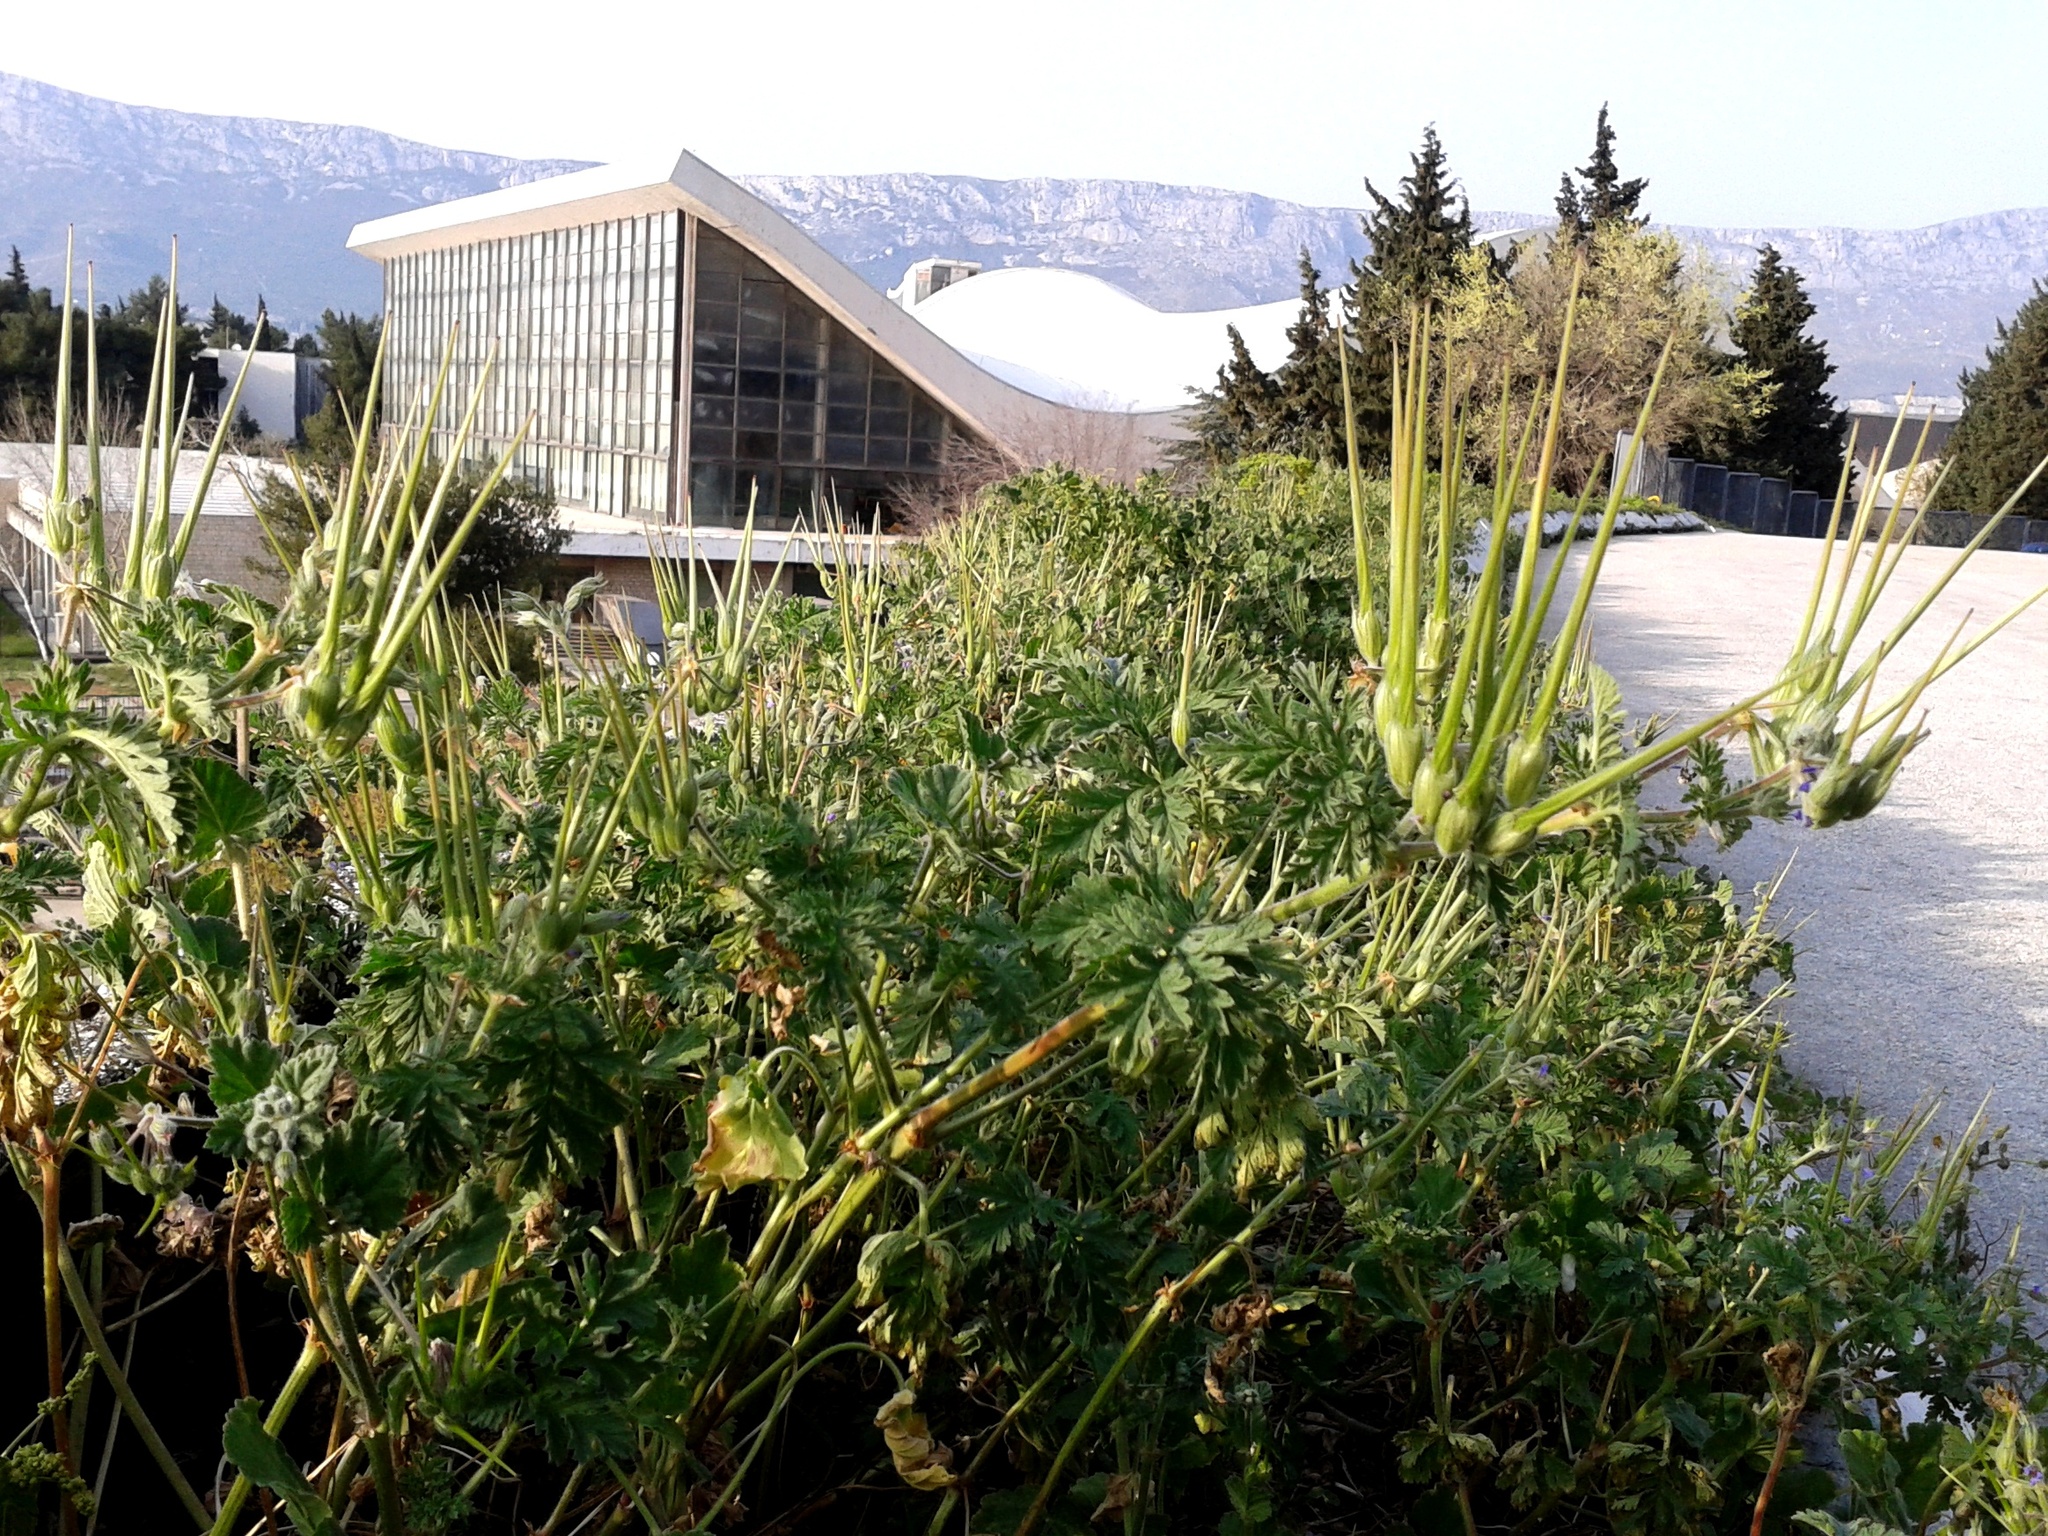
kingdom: Plantae
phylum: Tracheophyta
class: Magnoliopsida
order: Geraniales
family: Geraniaceae
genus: Erodium
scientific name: Erodium ciconium
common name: Common stork's bill
